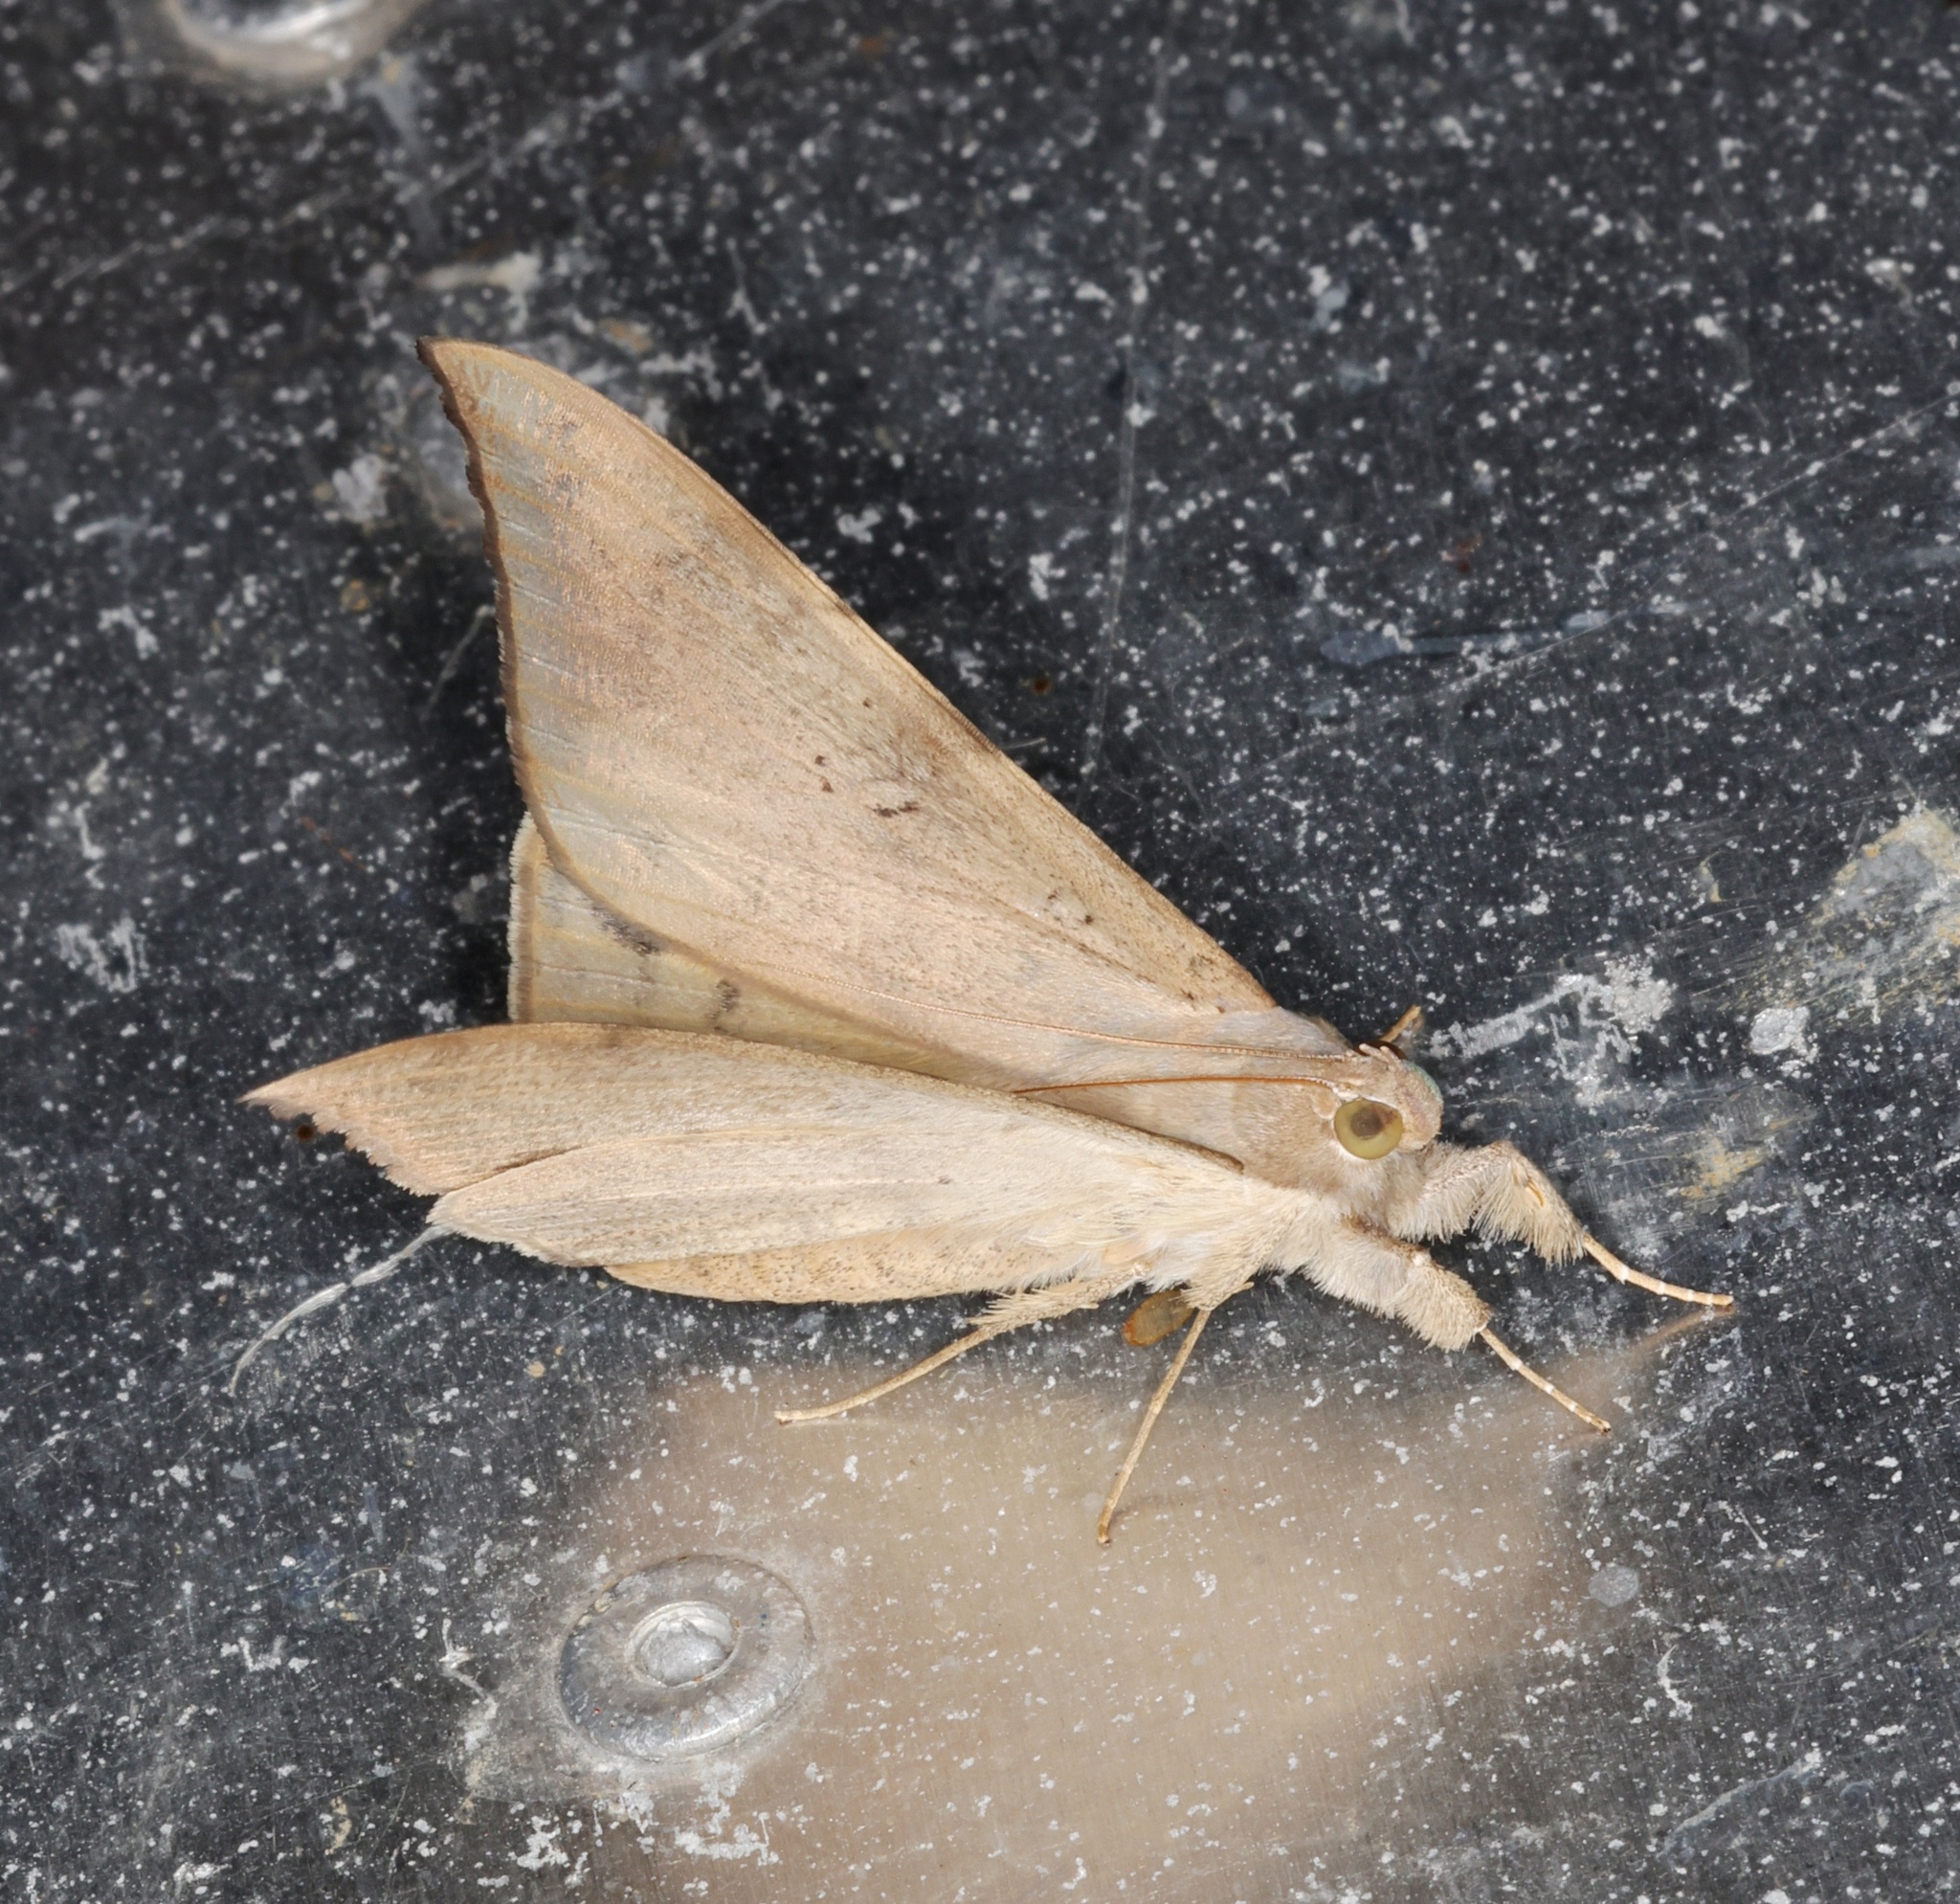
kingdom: Animalia
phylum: Arthropoda
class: Insecta
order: Lepidoptera
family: Erebidae
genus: Oxyodes
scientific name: Oxyodes scrobiculata
